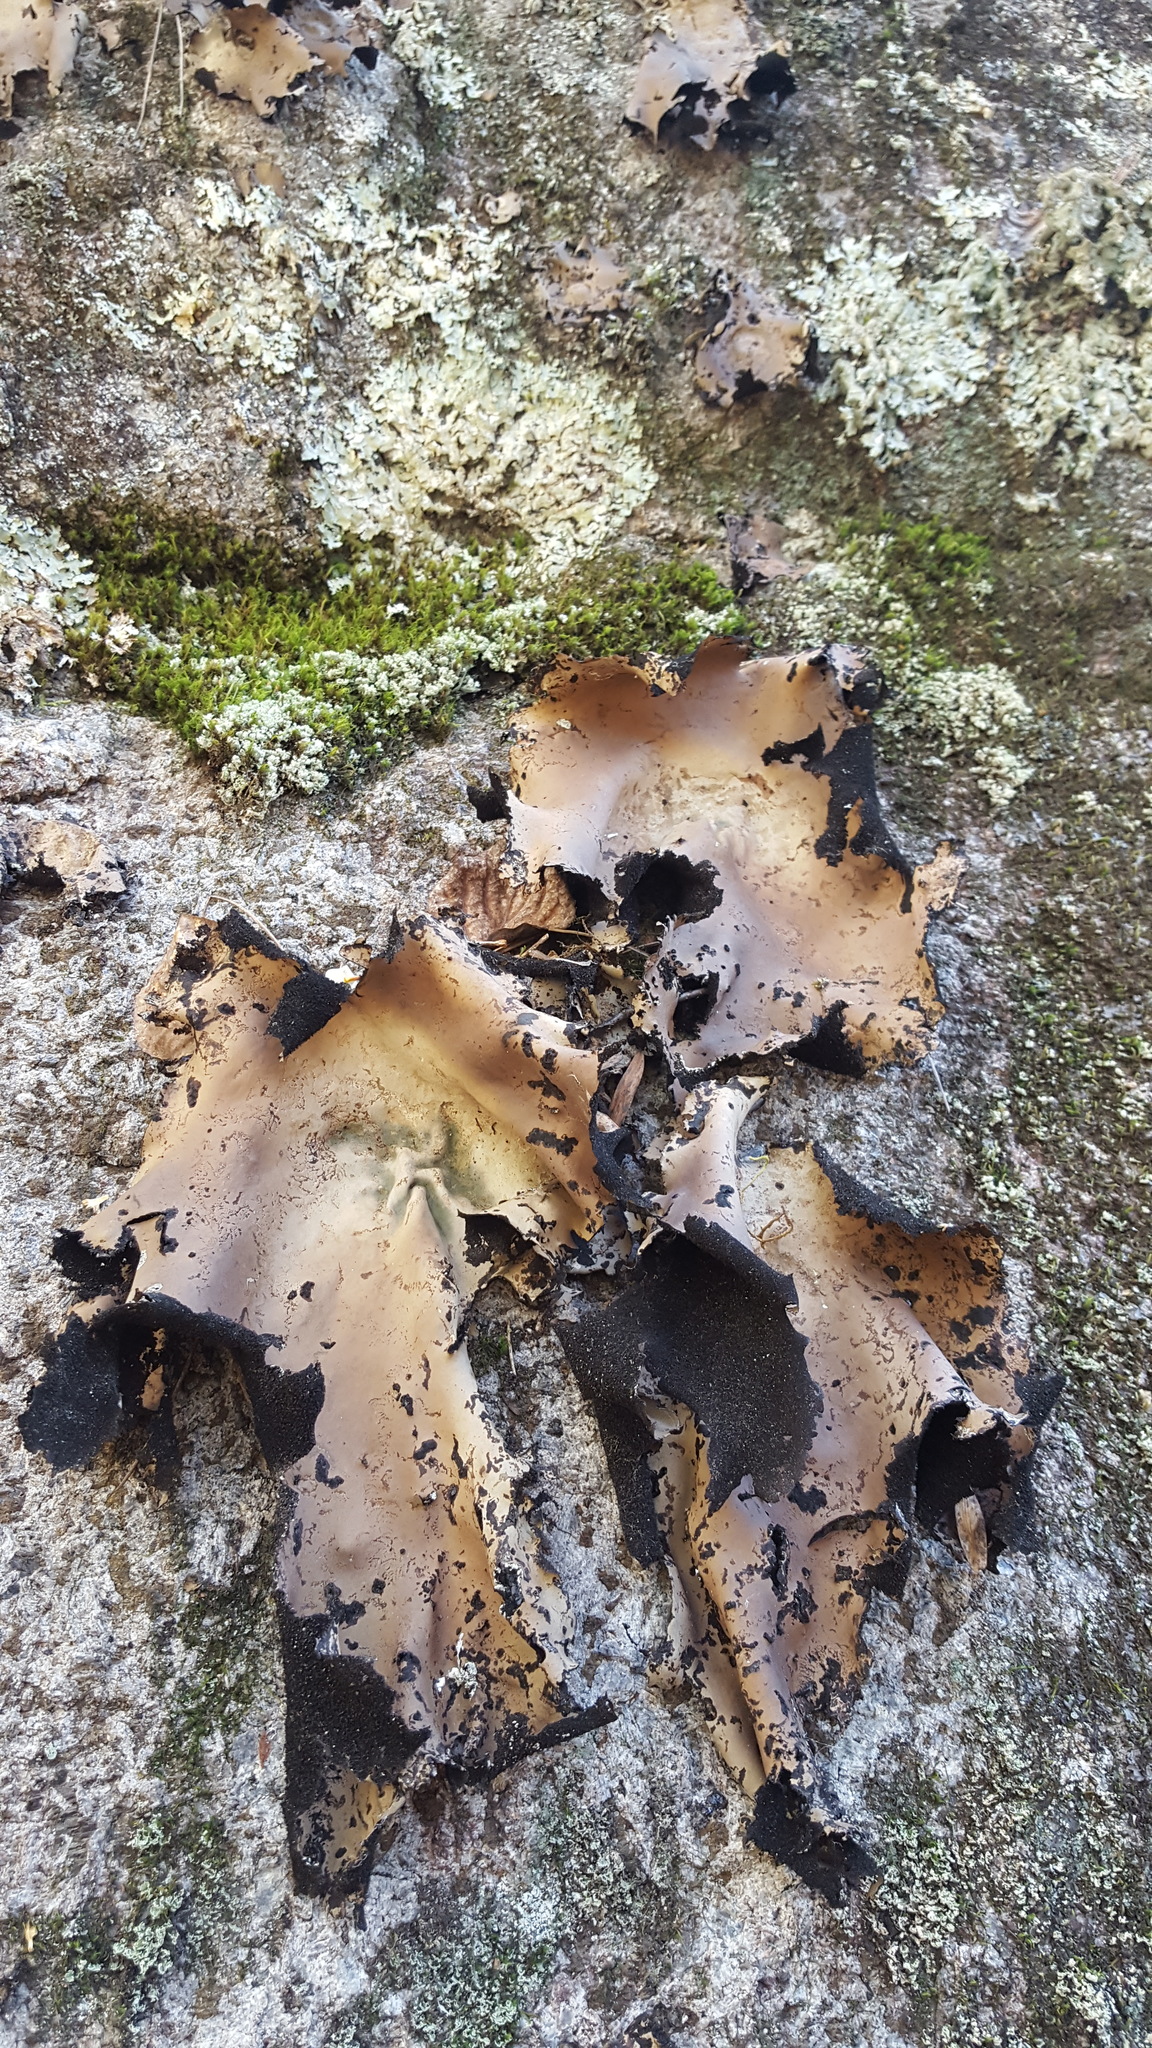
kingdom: Fungi
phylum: Ascomycota
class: Lecanoromycetes
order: Umbilicariales
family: Umbilicariaceae
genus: Umbilicaria
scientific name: Umbilicaria mammulata
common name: Smooth rock tripe
